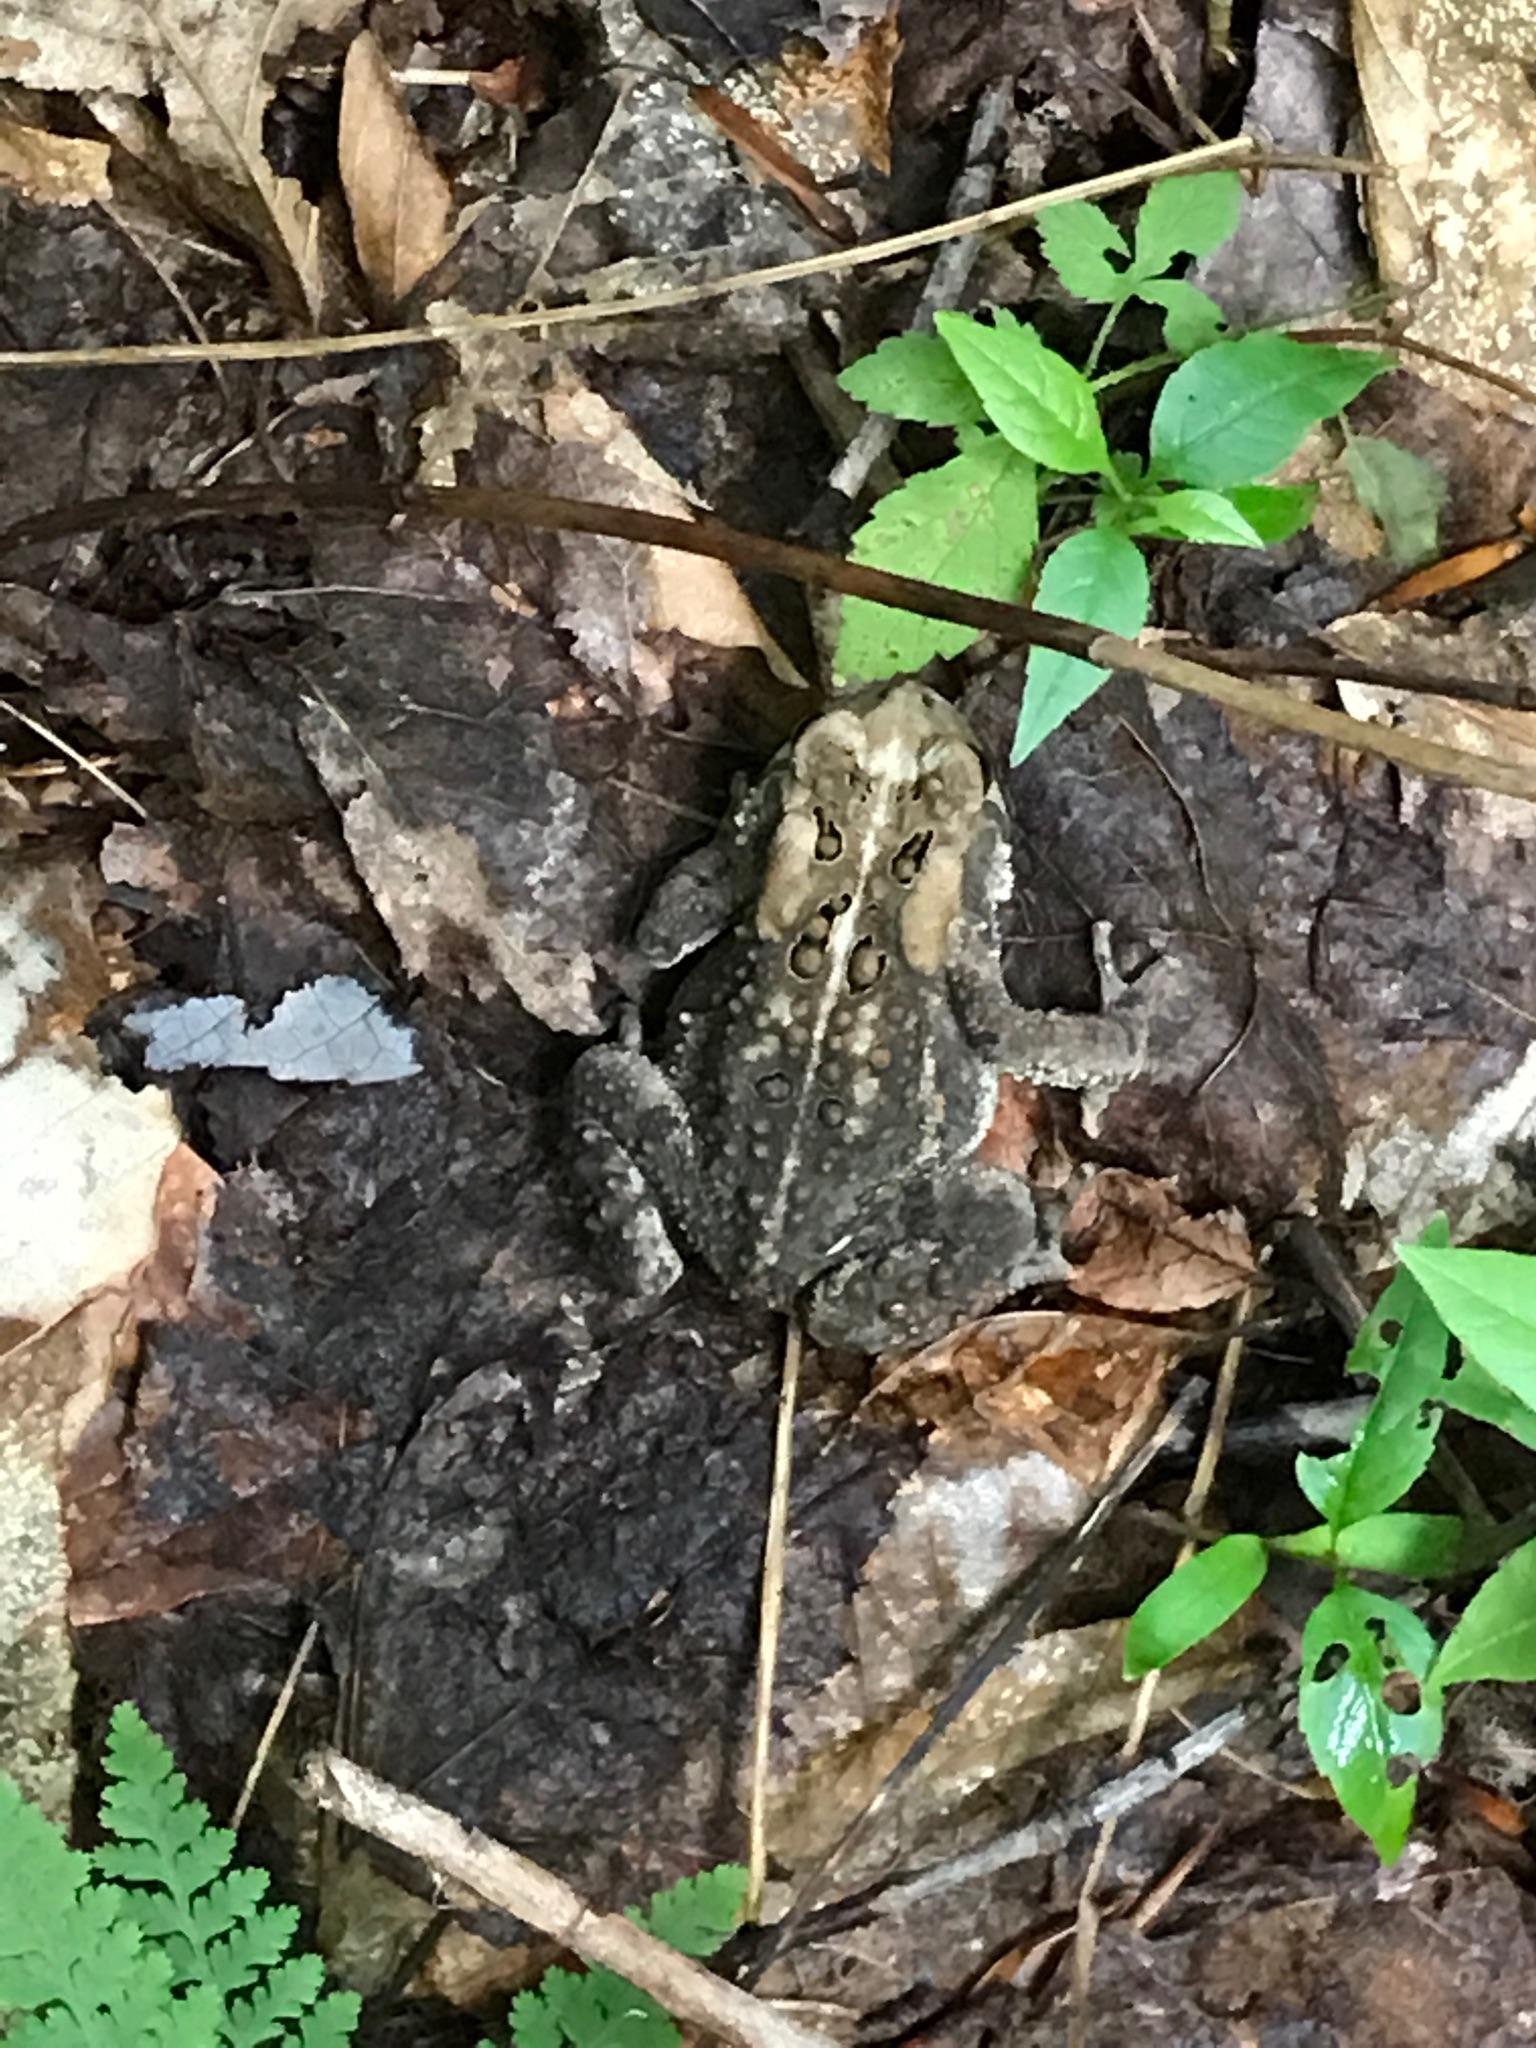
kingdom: Animalia
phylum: Chordata
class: Amphibia
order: Anura
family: Bufonidae
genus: Anaxyrus
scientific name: Anaxyrus americanus
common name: American toad
